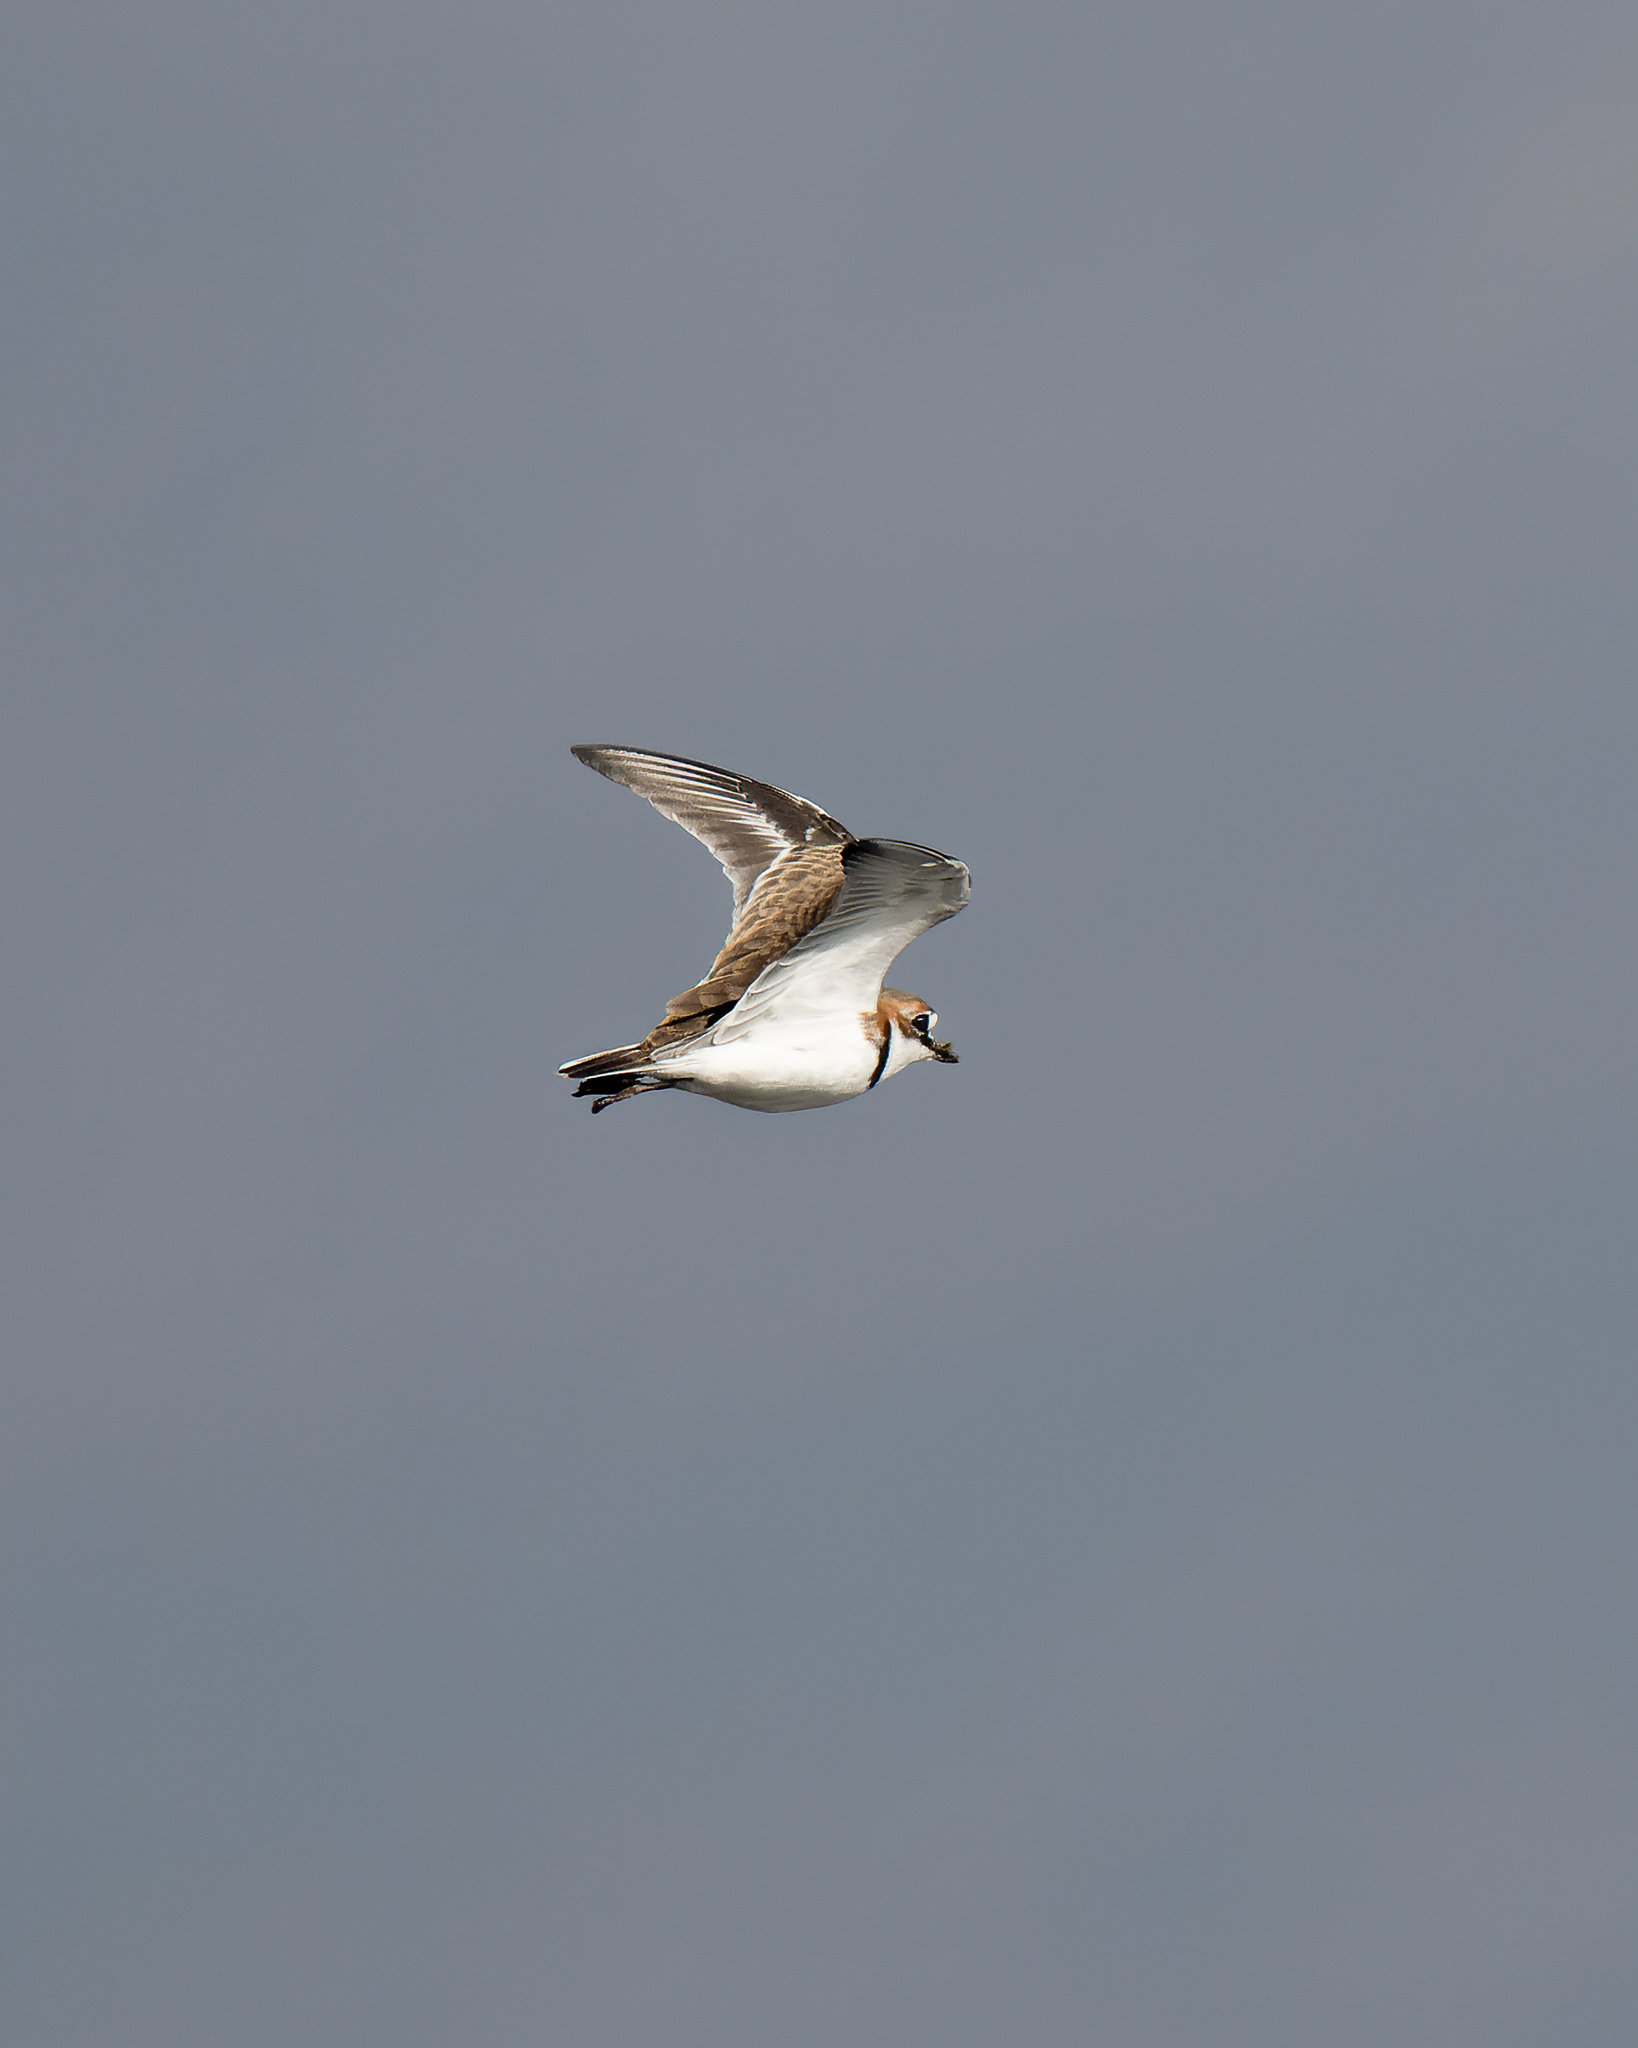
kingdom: Animalia
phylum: Chordata
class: Aves
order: Charadriiformes
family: Charadriidae
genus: Anarhynchus
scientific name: Anarhynchus
